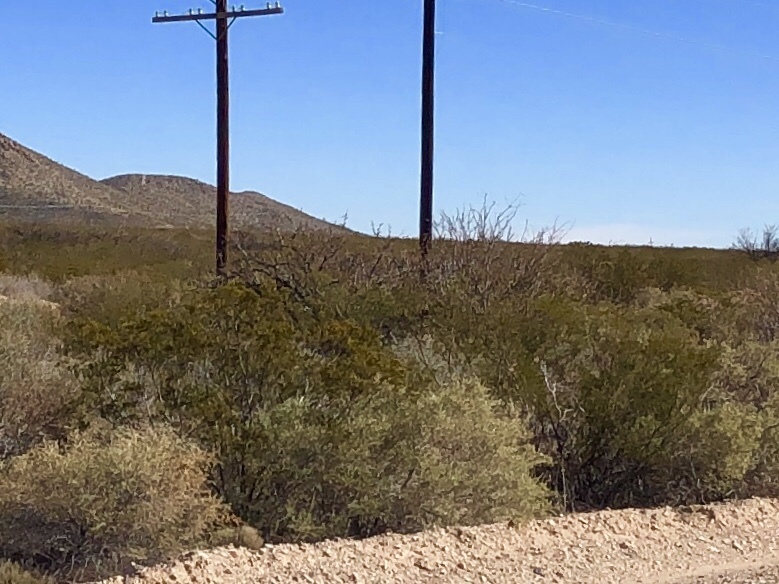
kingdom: Plantae
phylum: Tracheophyta
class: Magnoliopsida
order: Zygophyllales
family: Zygophyllaceae
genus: Larrea
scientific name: Larrea tridentata
